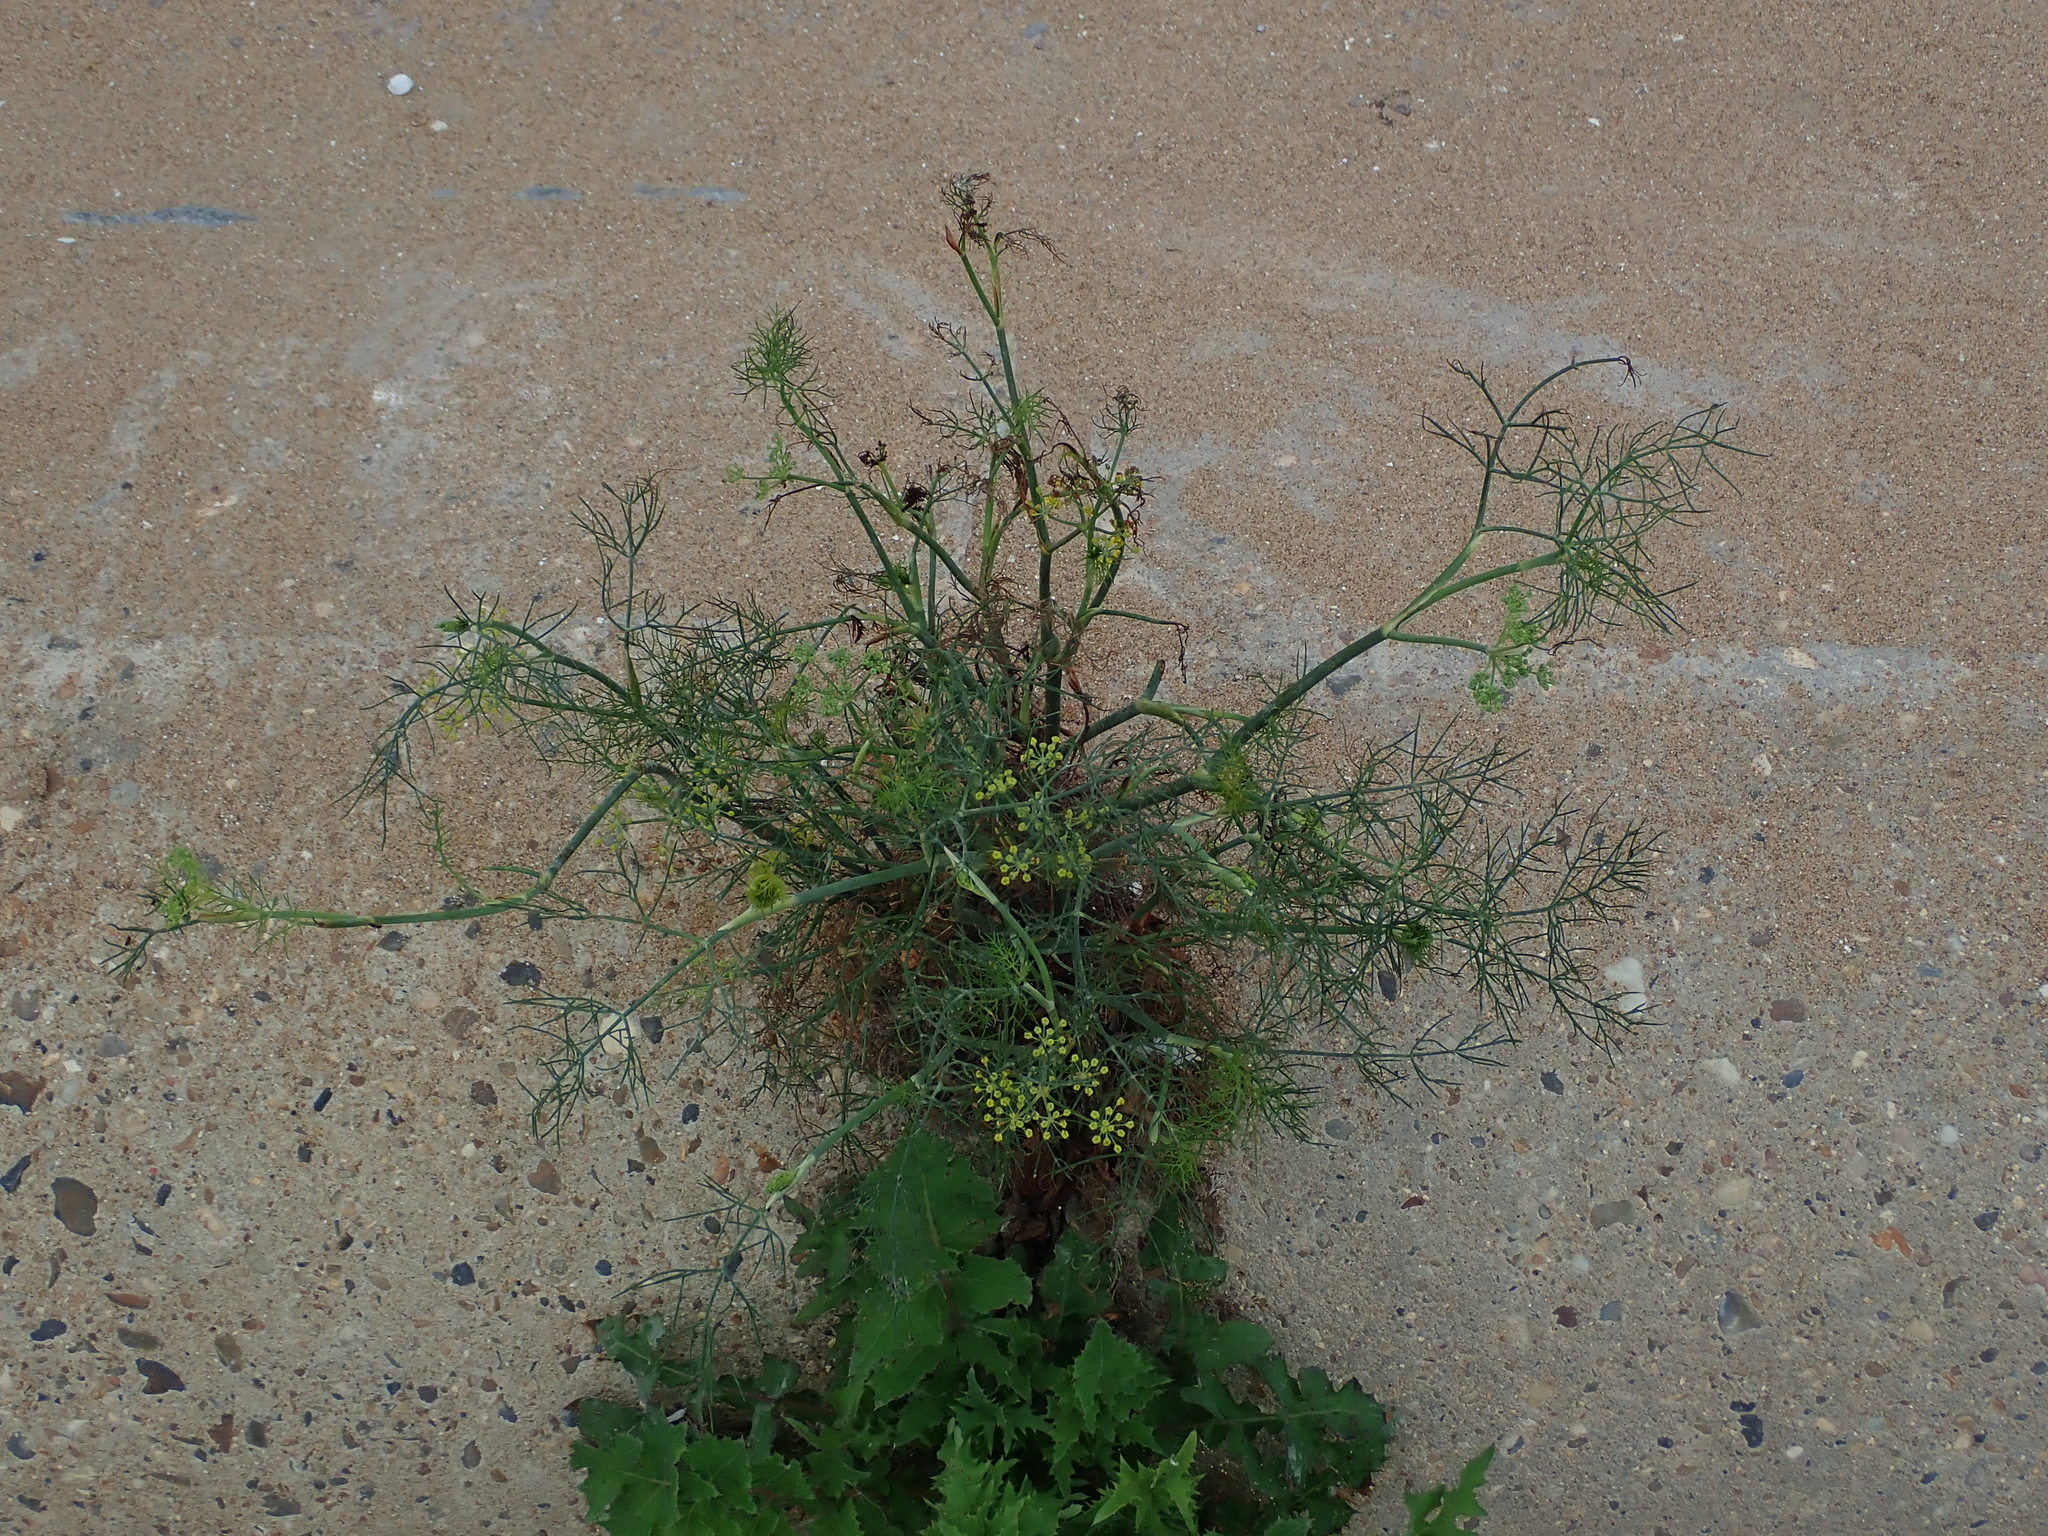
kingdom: Plantae
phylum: Tracheophyta
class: Magnoliopsida
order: Apiales
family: Apiaceae
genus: Foeniculum
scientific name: Foeniculum vulgare
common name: Fennel
